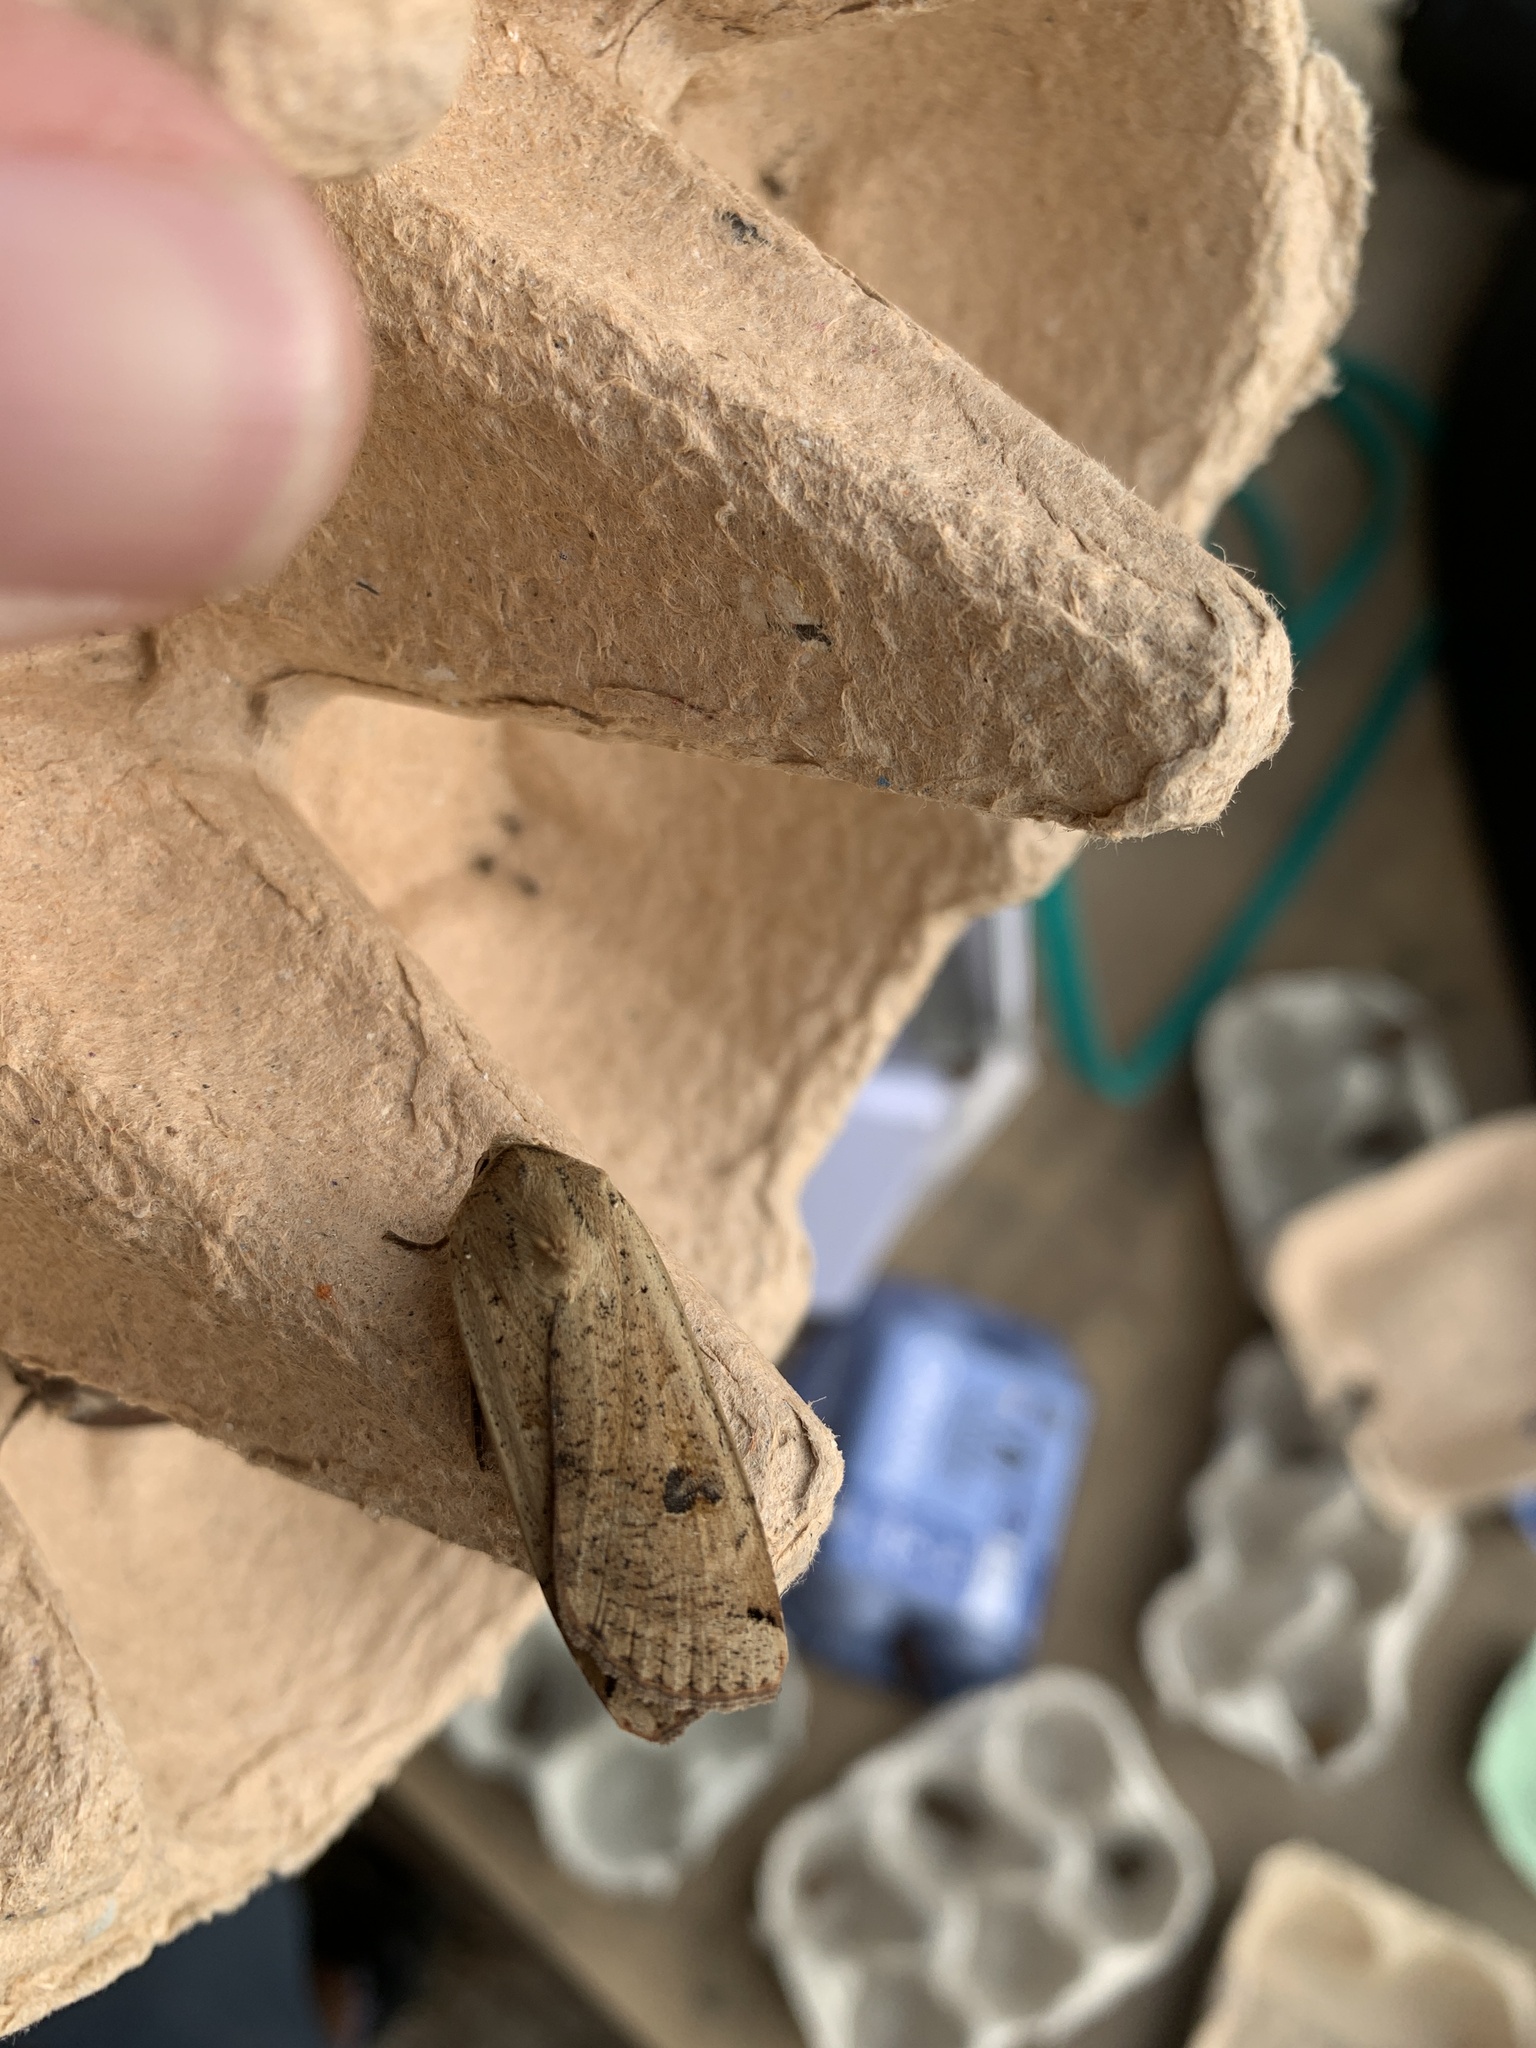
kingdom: Animalia
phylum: Arthropoda
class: Insecta
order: Lepidoptera
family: Noctuidae
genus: Noctua
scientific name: Noctua pronuba
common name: Large yellow underwing
